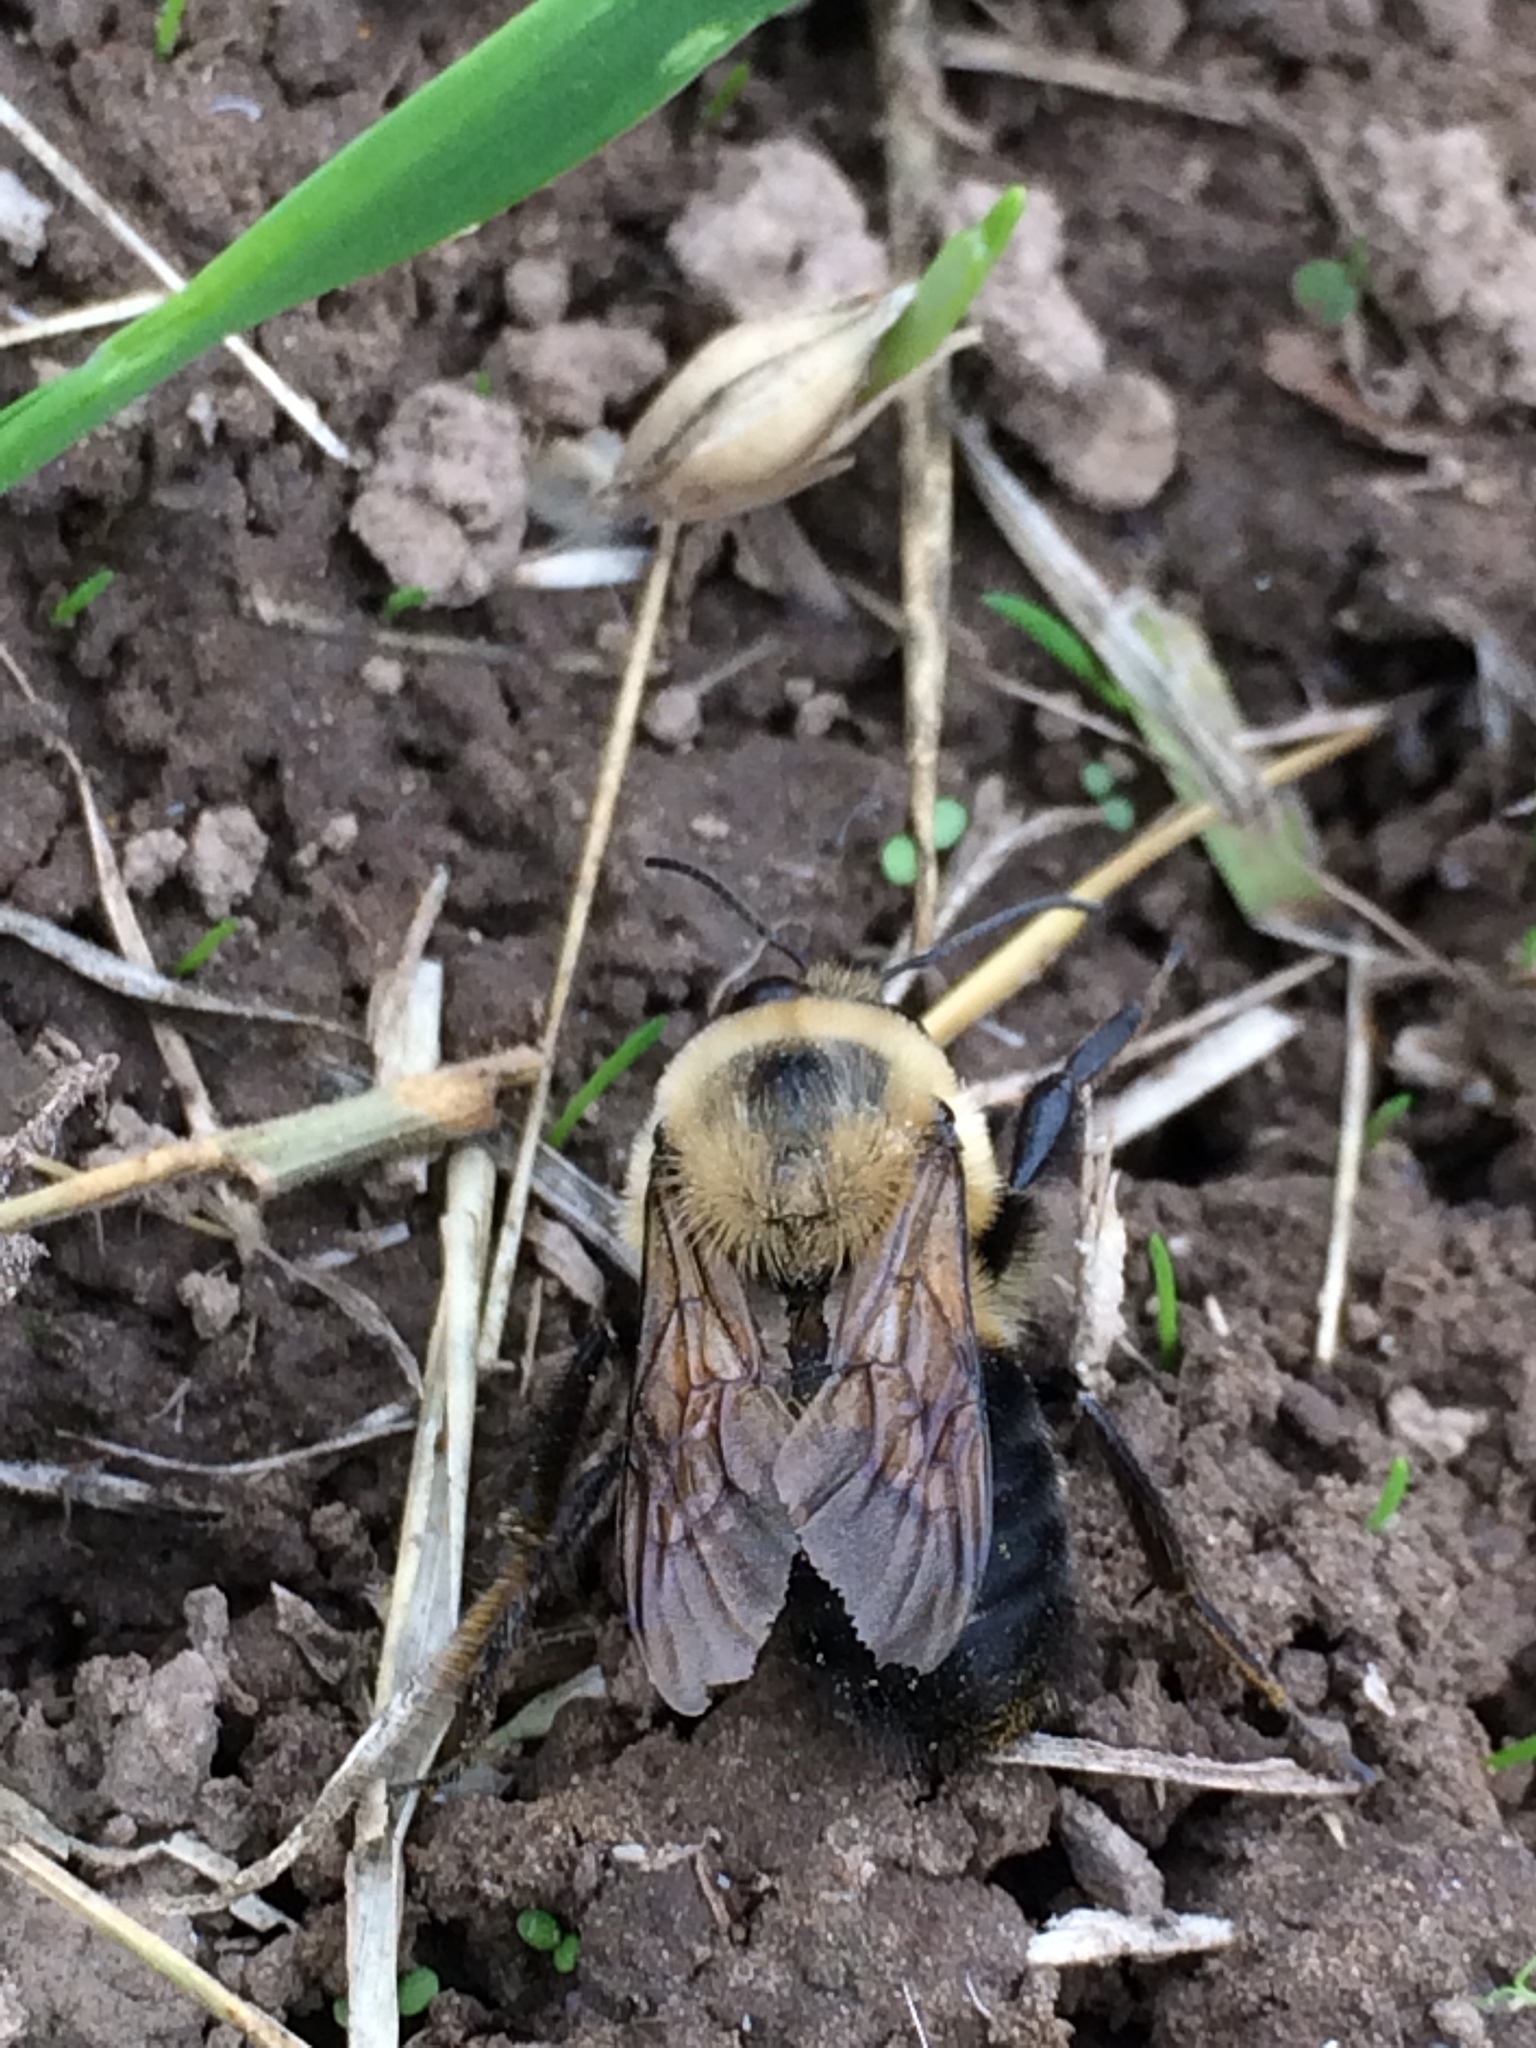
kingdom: Animalia
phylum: Arthropoda
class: Insecta
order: Hymenoptera
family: Apidae
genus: Bombus
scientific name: Bombus griseocollis
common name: Brown-belted bumble bee
